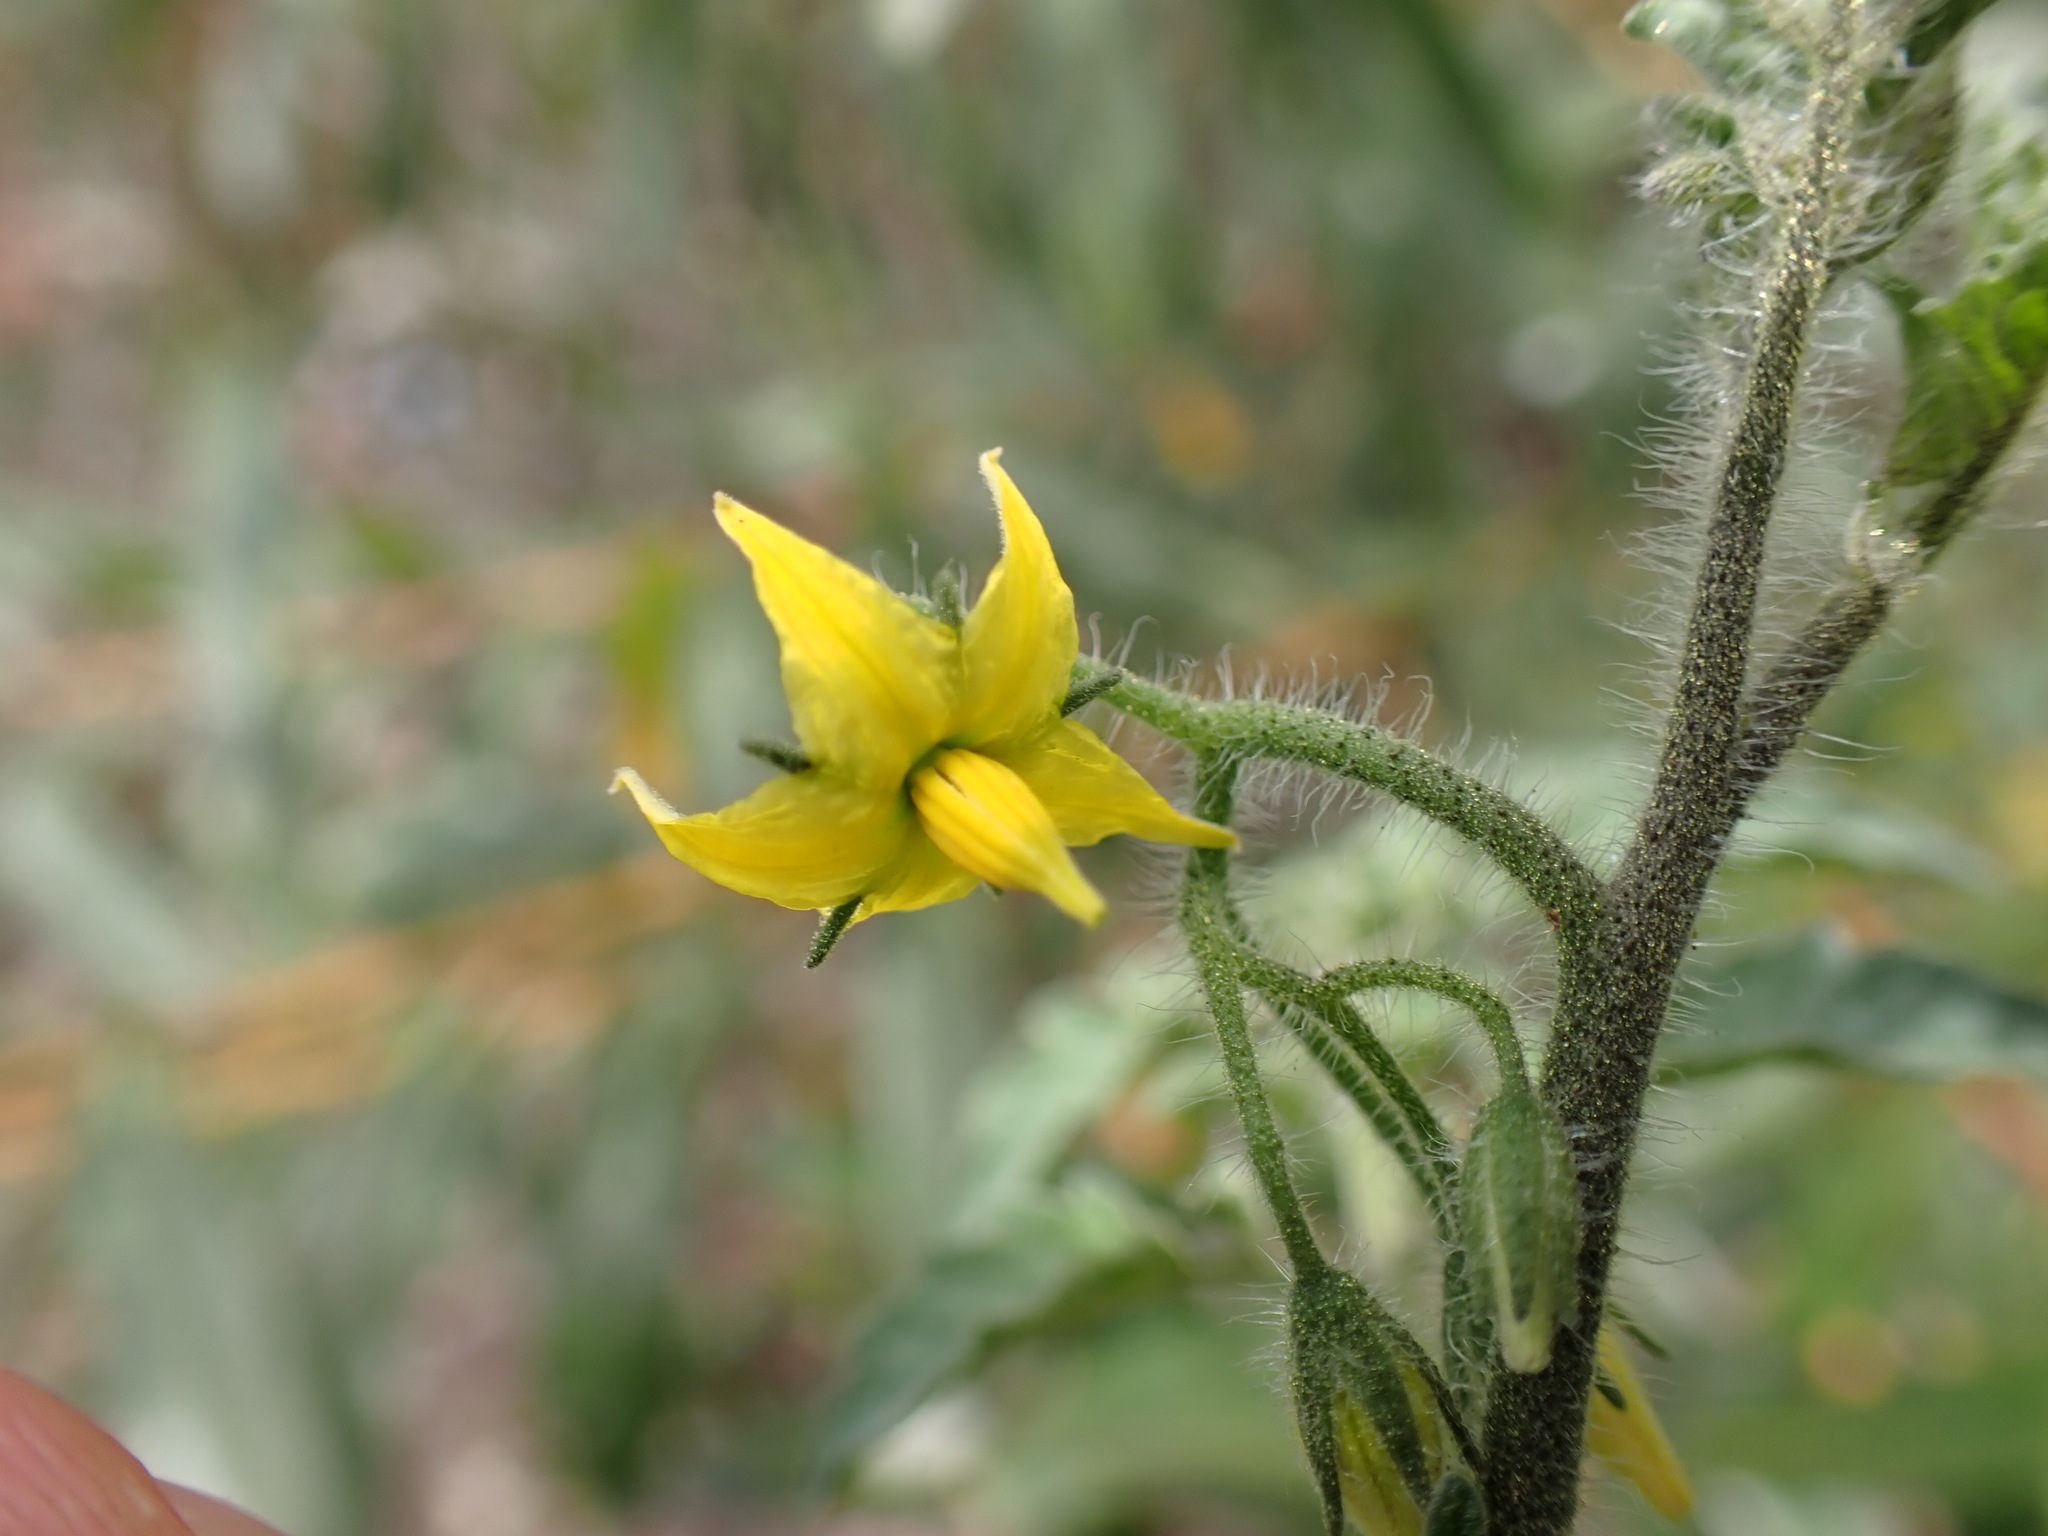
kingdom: Plantae
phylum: Tracheophyta
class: Magnoliopsida
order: Solanales
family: Solanaceae
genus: Solanum
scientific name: Solanum lycopersicum
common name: Garden tomato
